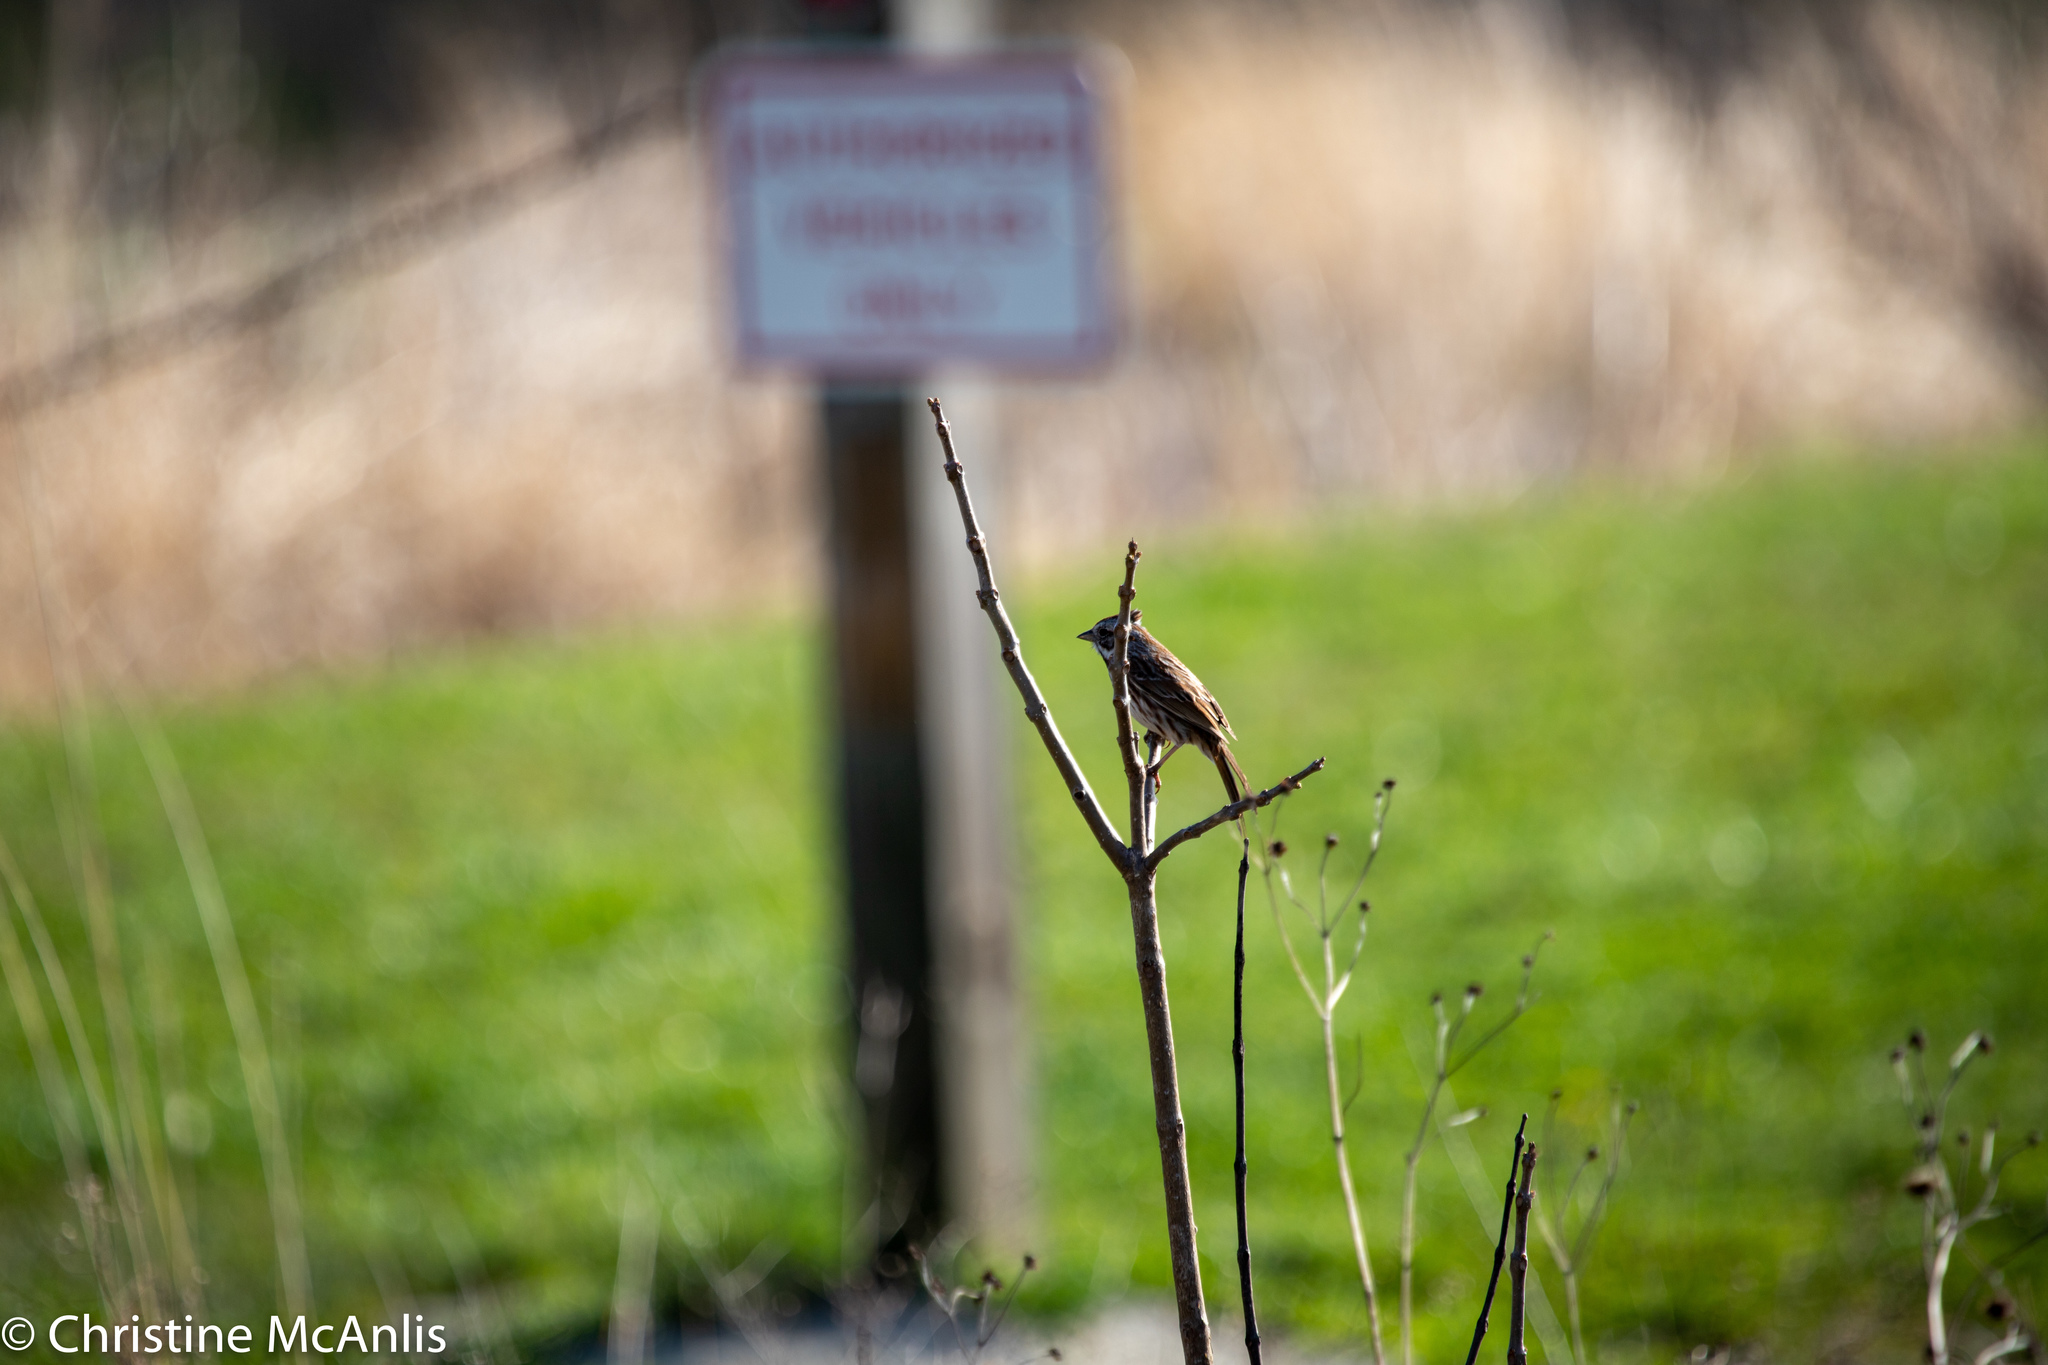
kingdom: Animalia
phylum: Chordata
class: Aves
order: Passeriformes
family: Passerellidae
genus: Melospiza
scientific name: Melospiza melodia
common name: Song sparrow
